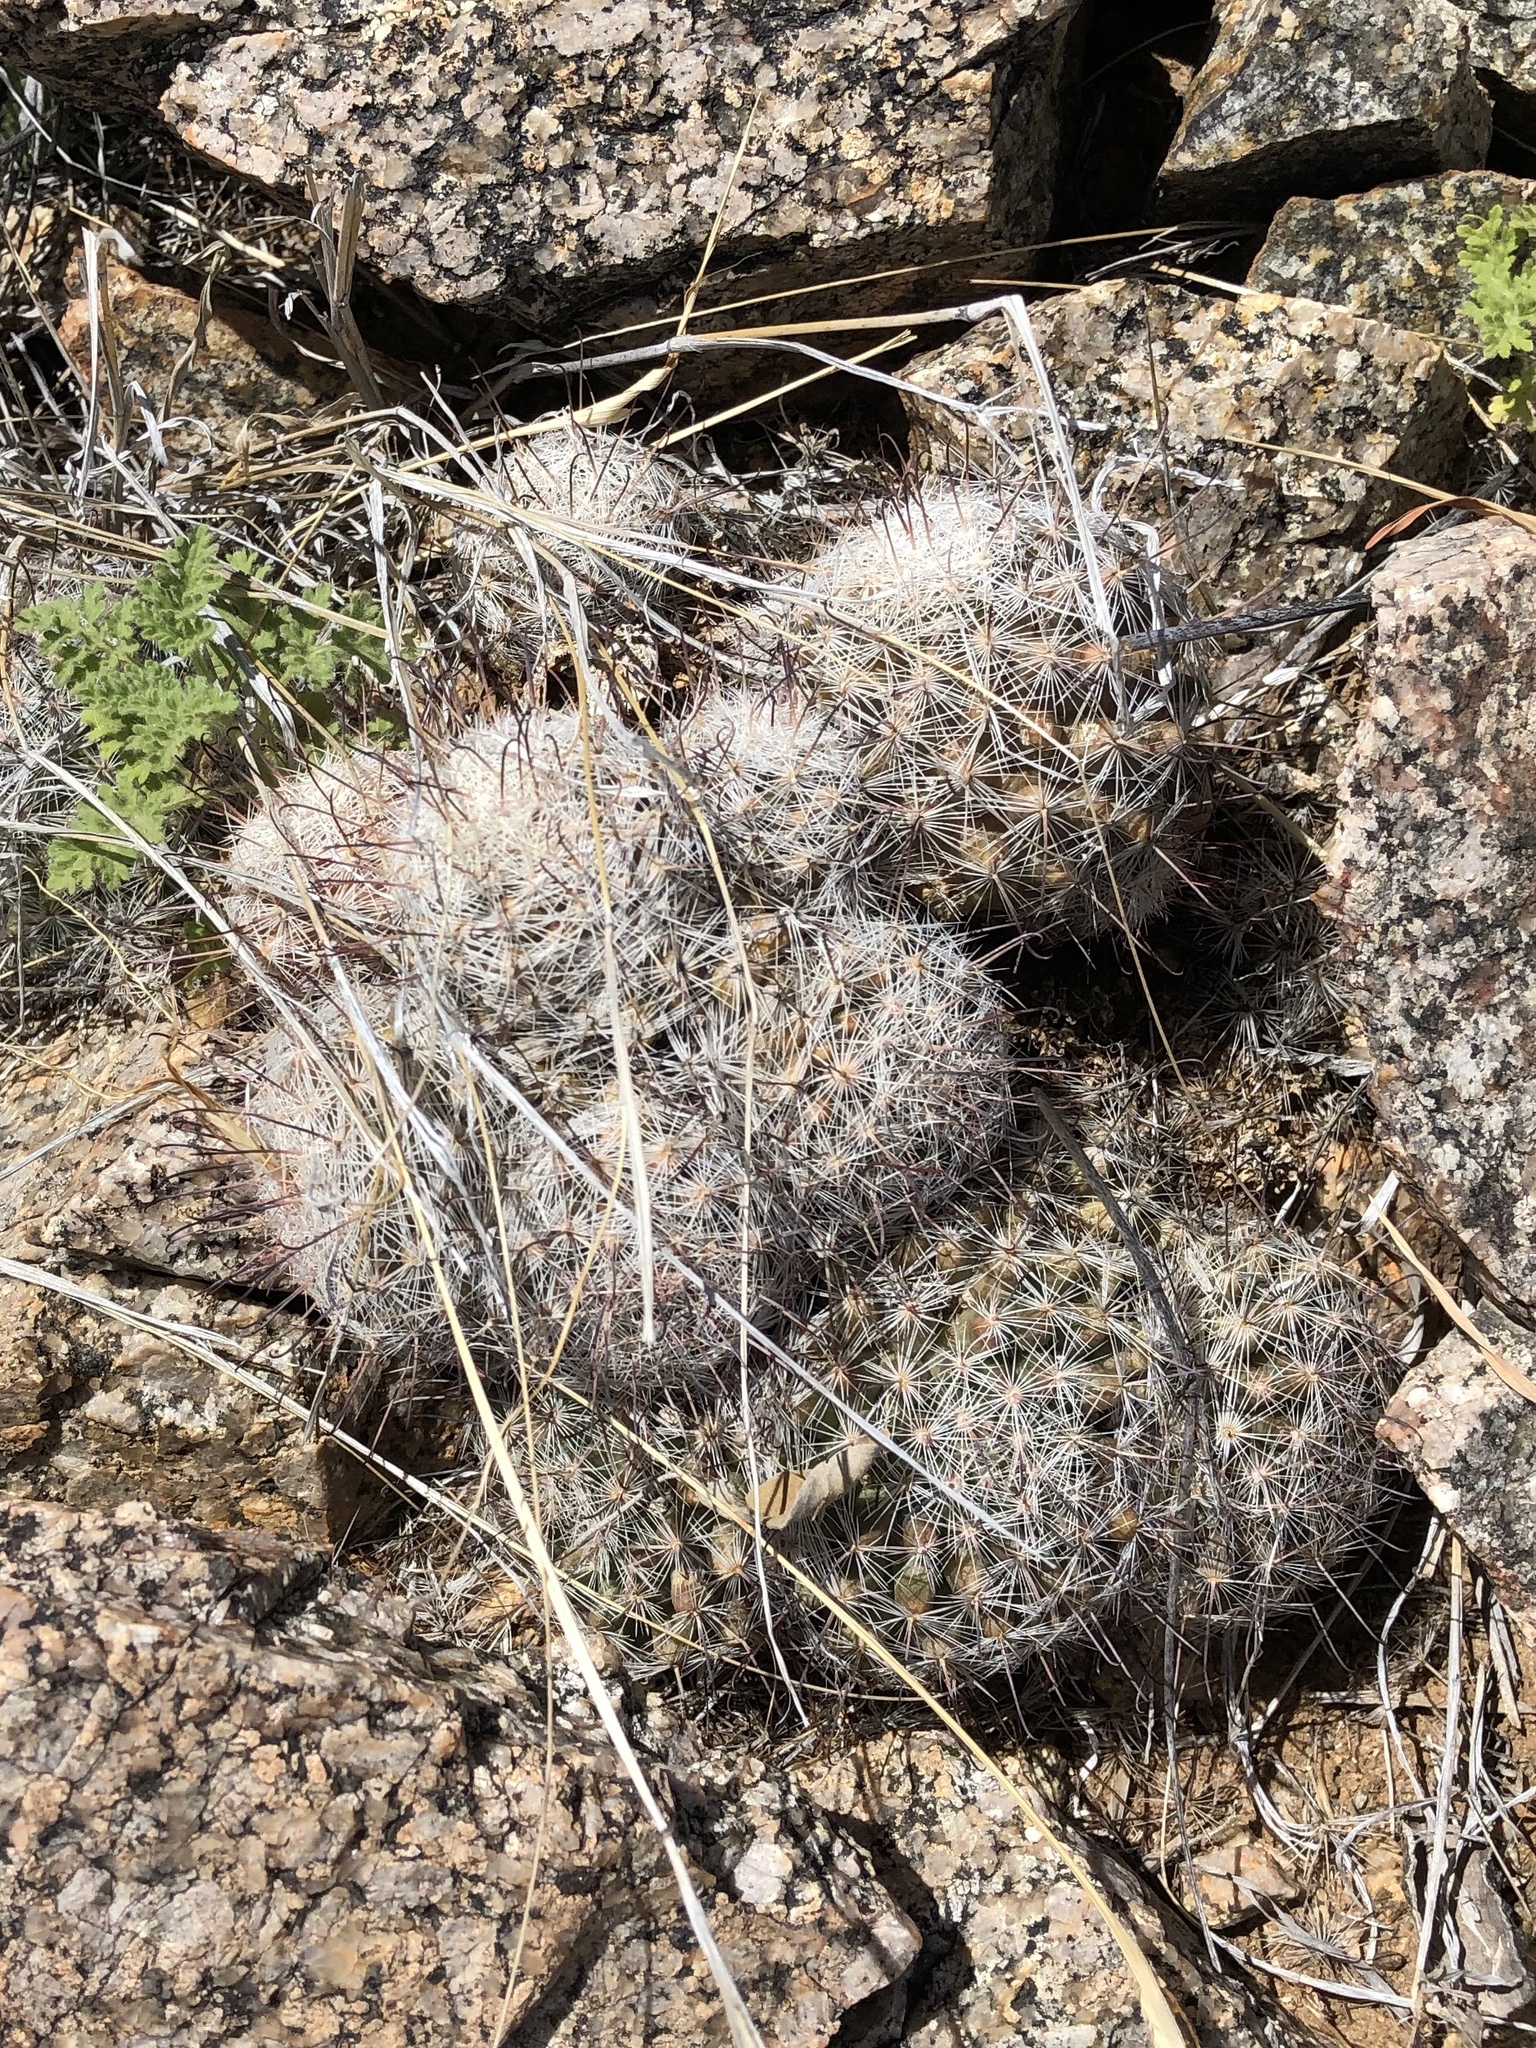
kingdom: Plantae
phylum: Tracheophyta
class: Magnoliopsida
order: Caryophyllales
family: Cactaceae
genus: Cochemiea
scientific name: Cochemiea grahamii
